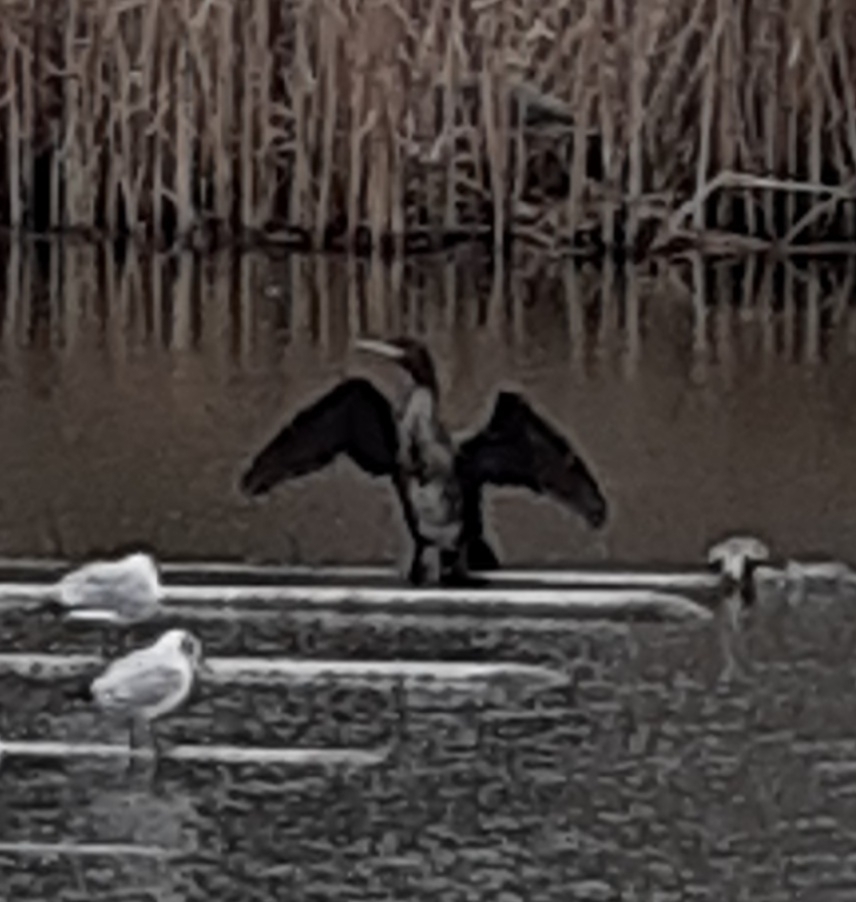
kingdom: Animalia
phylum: Chordata
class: Aves
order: Suliformes
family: Phalacrocoracidae
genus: Phalacrocorax
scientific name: Phalacrocorax carbo
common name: Great cormorant
